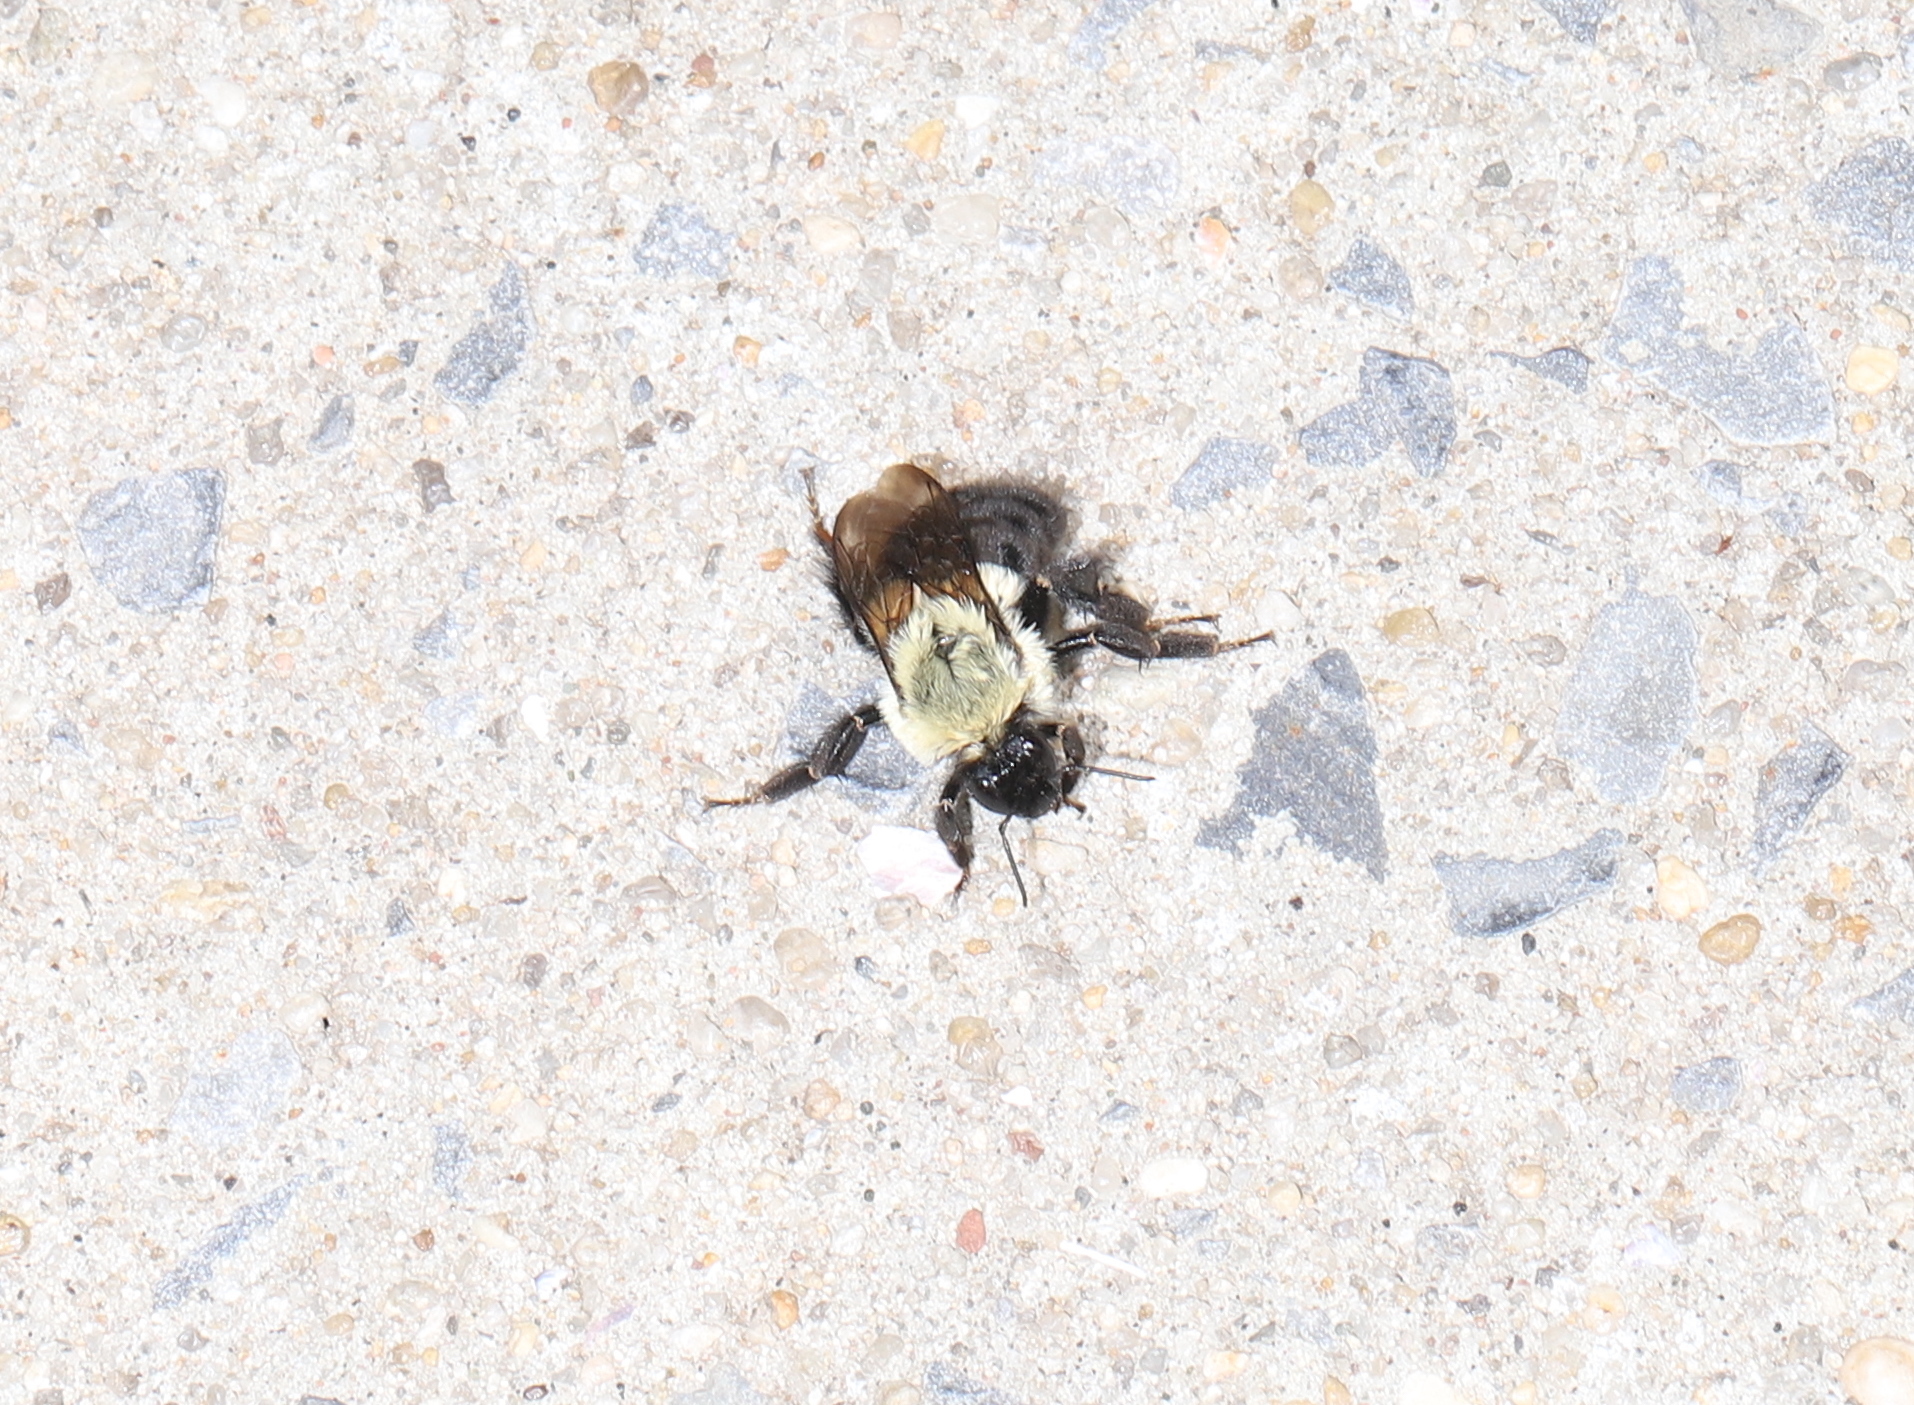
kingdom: Animalia
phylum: Arthropoda
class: Insecta
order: Hymenoptera
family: Apidae
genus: Bombus
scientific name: Bombus impatiens
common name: Common eastern bumble bee
